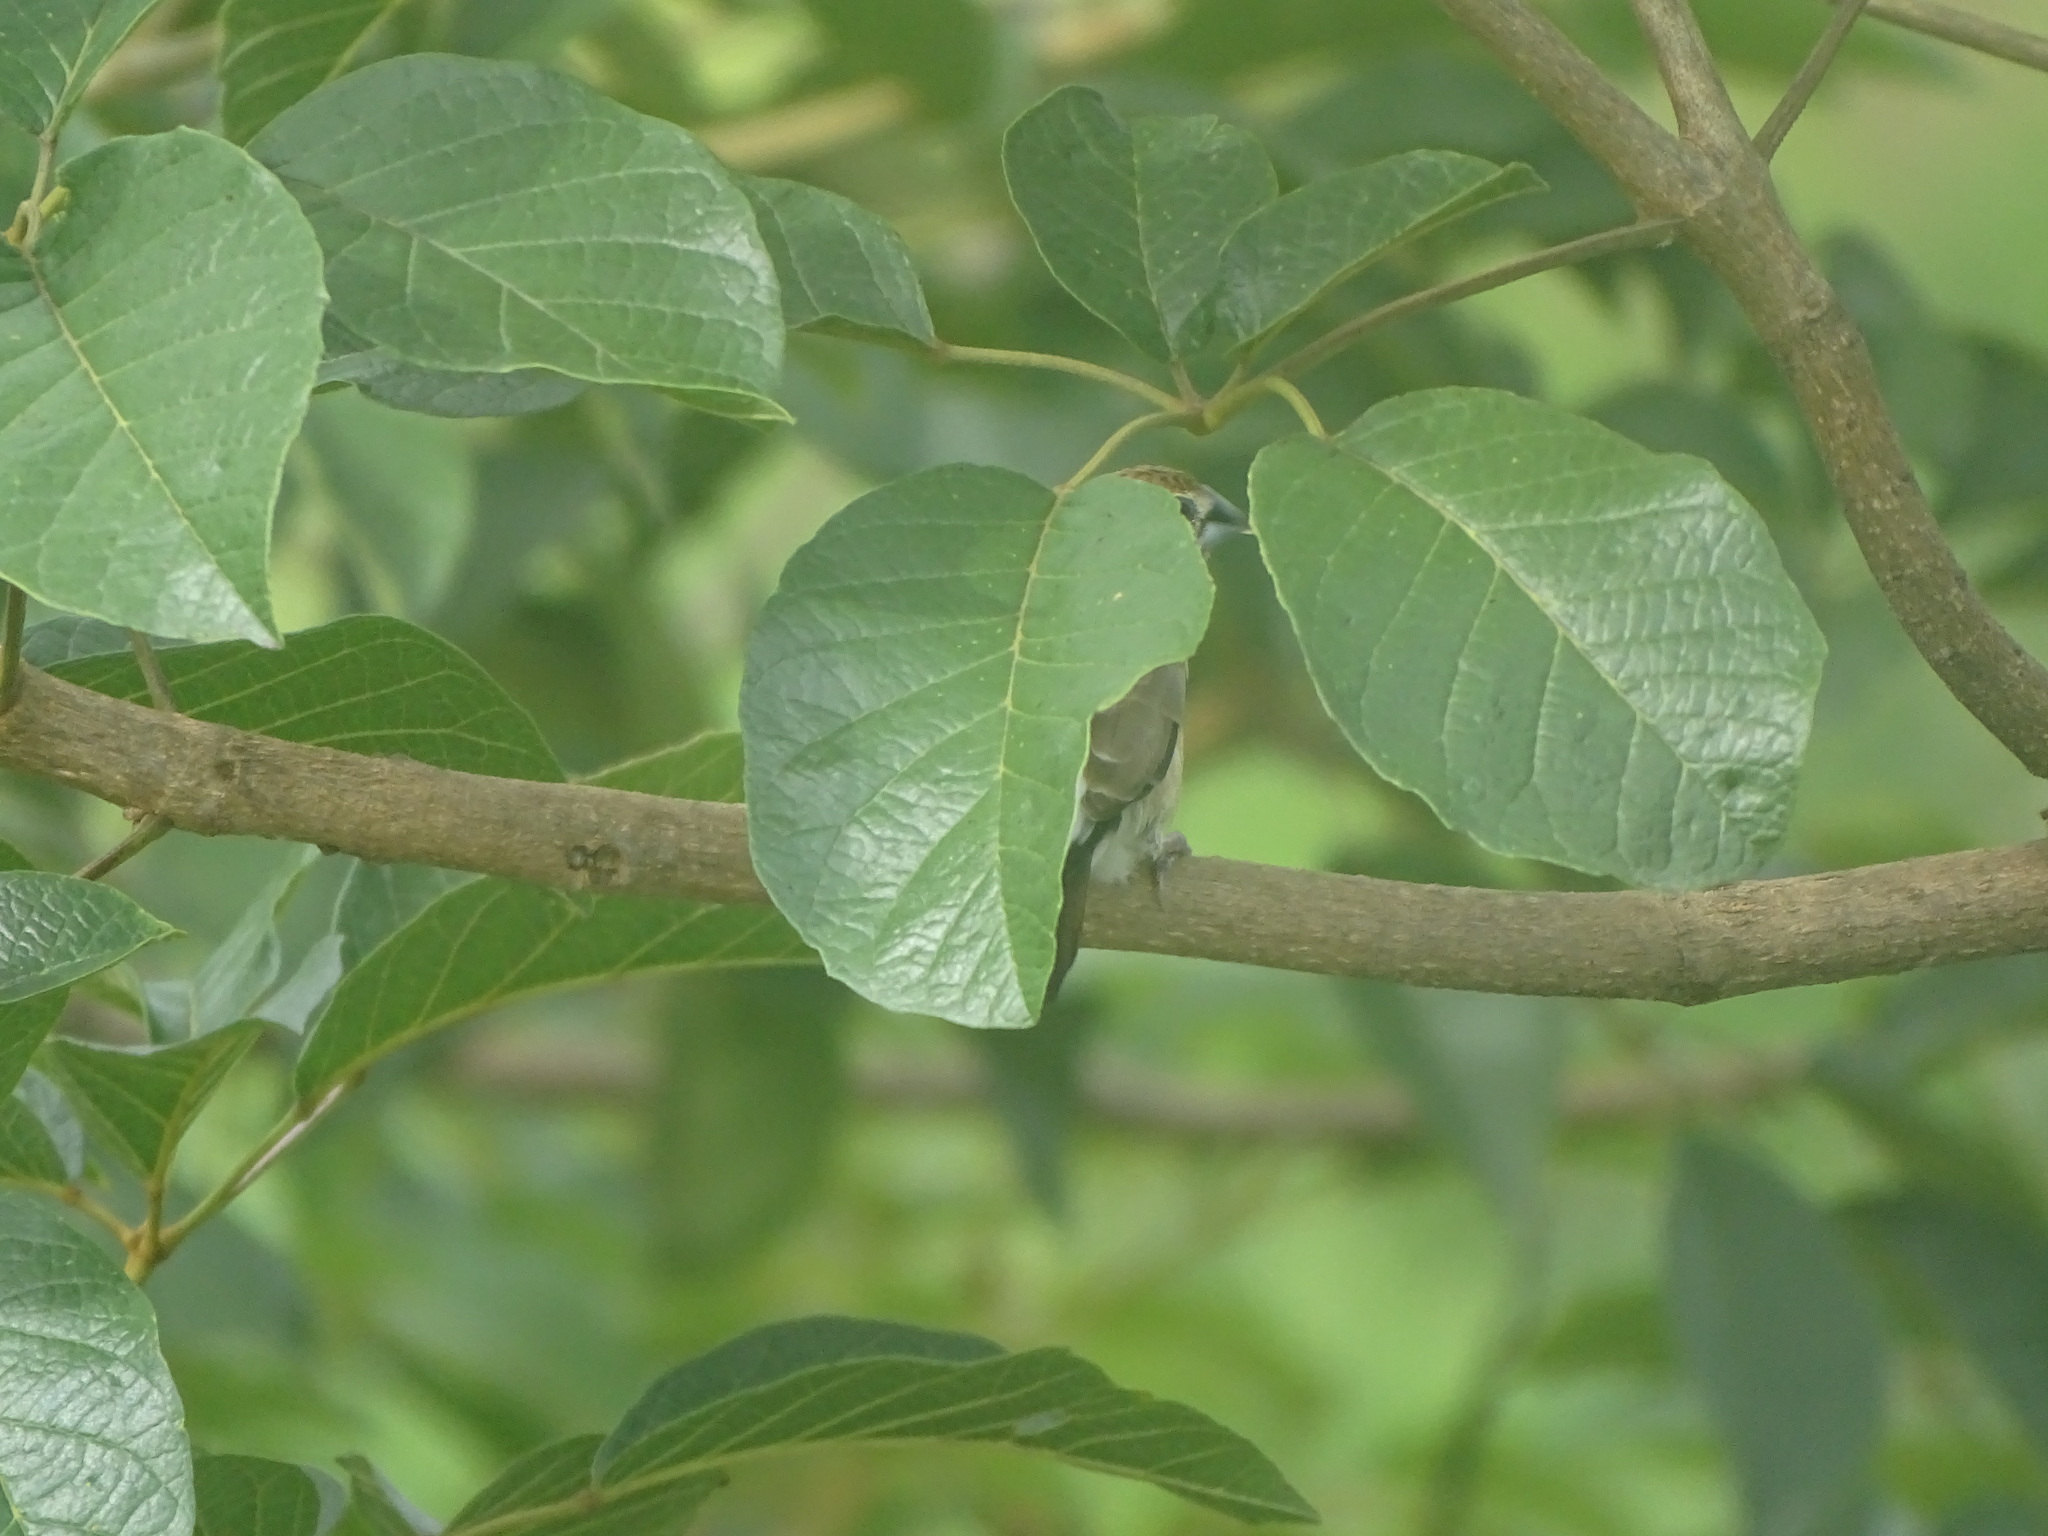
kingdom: Animalia
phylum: Chordata
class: Aves
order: Passeriformes
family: Estrildidae
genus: Euodice
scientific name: Euodice malabarica
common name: Indian silverbill
